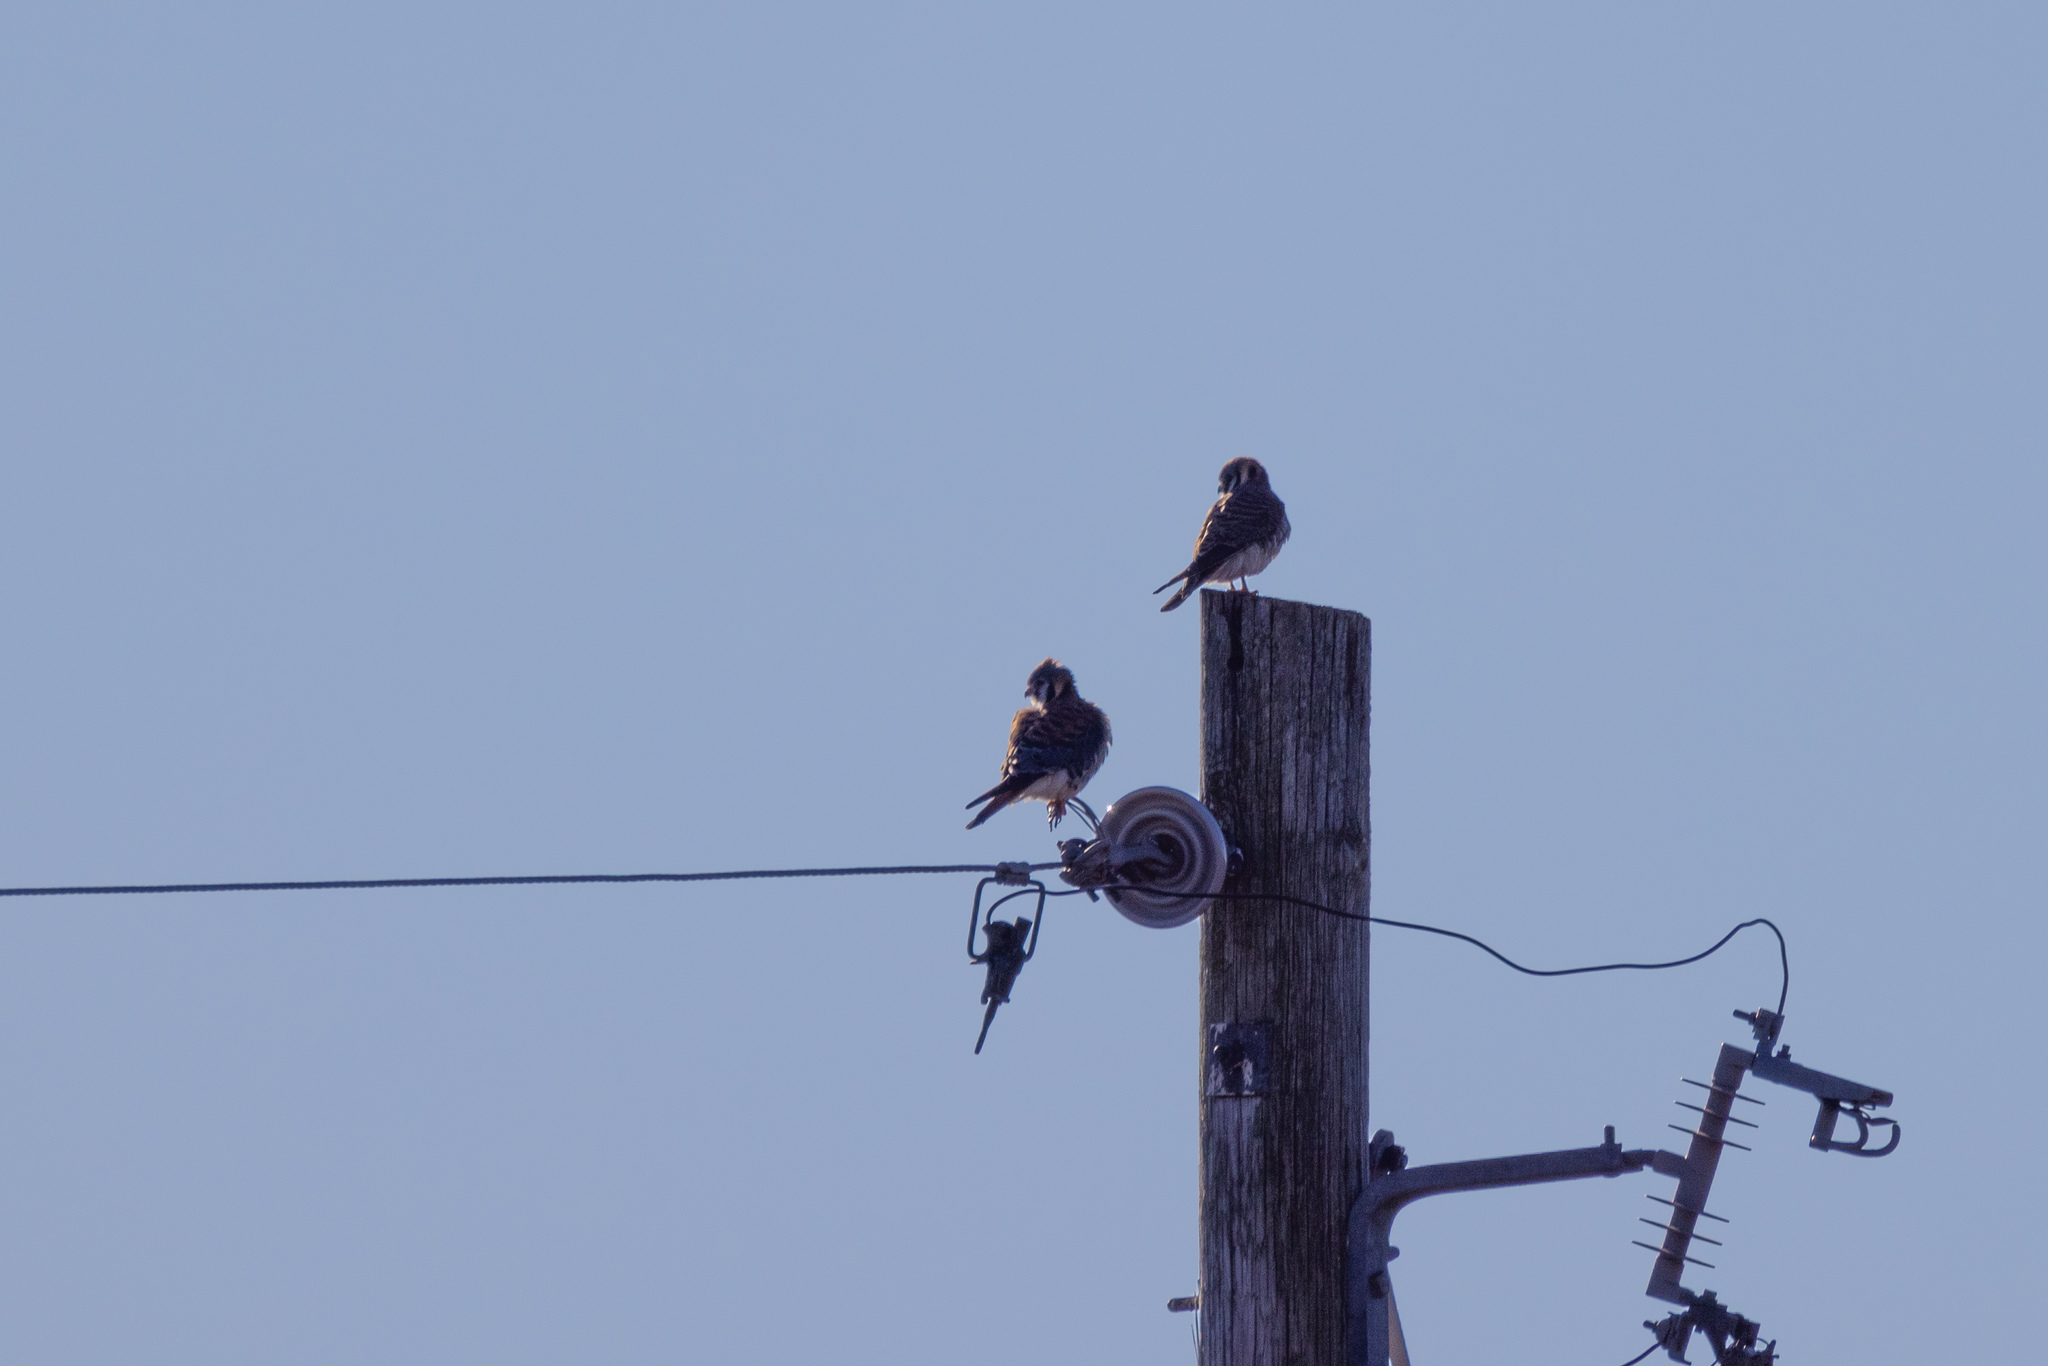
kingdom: Animalia
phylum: Chordata
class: Aves
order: Falconiformes
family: Falconidae
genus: Falco
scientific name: Falco sparverius
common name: American kestrel
